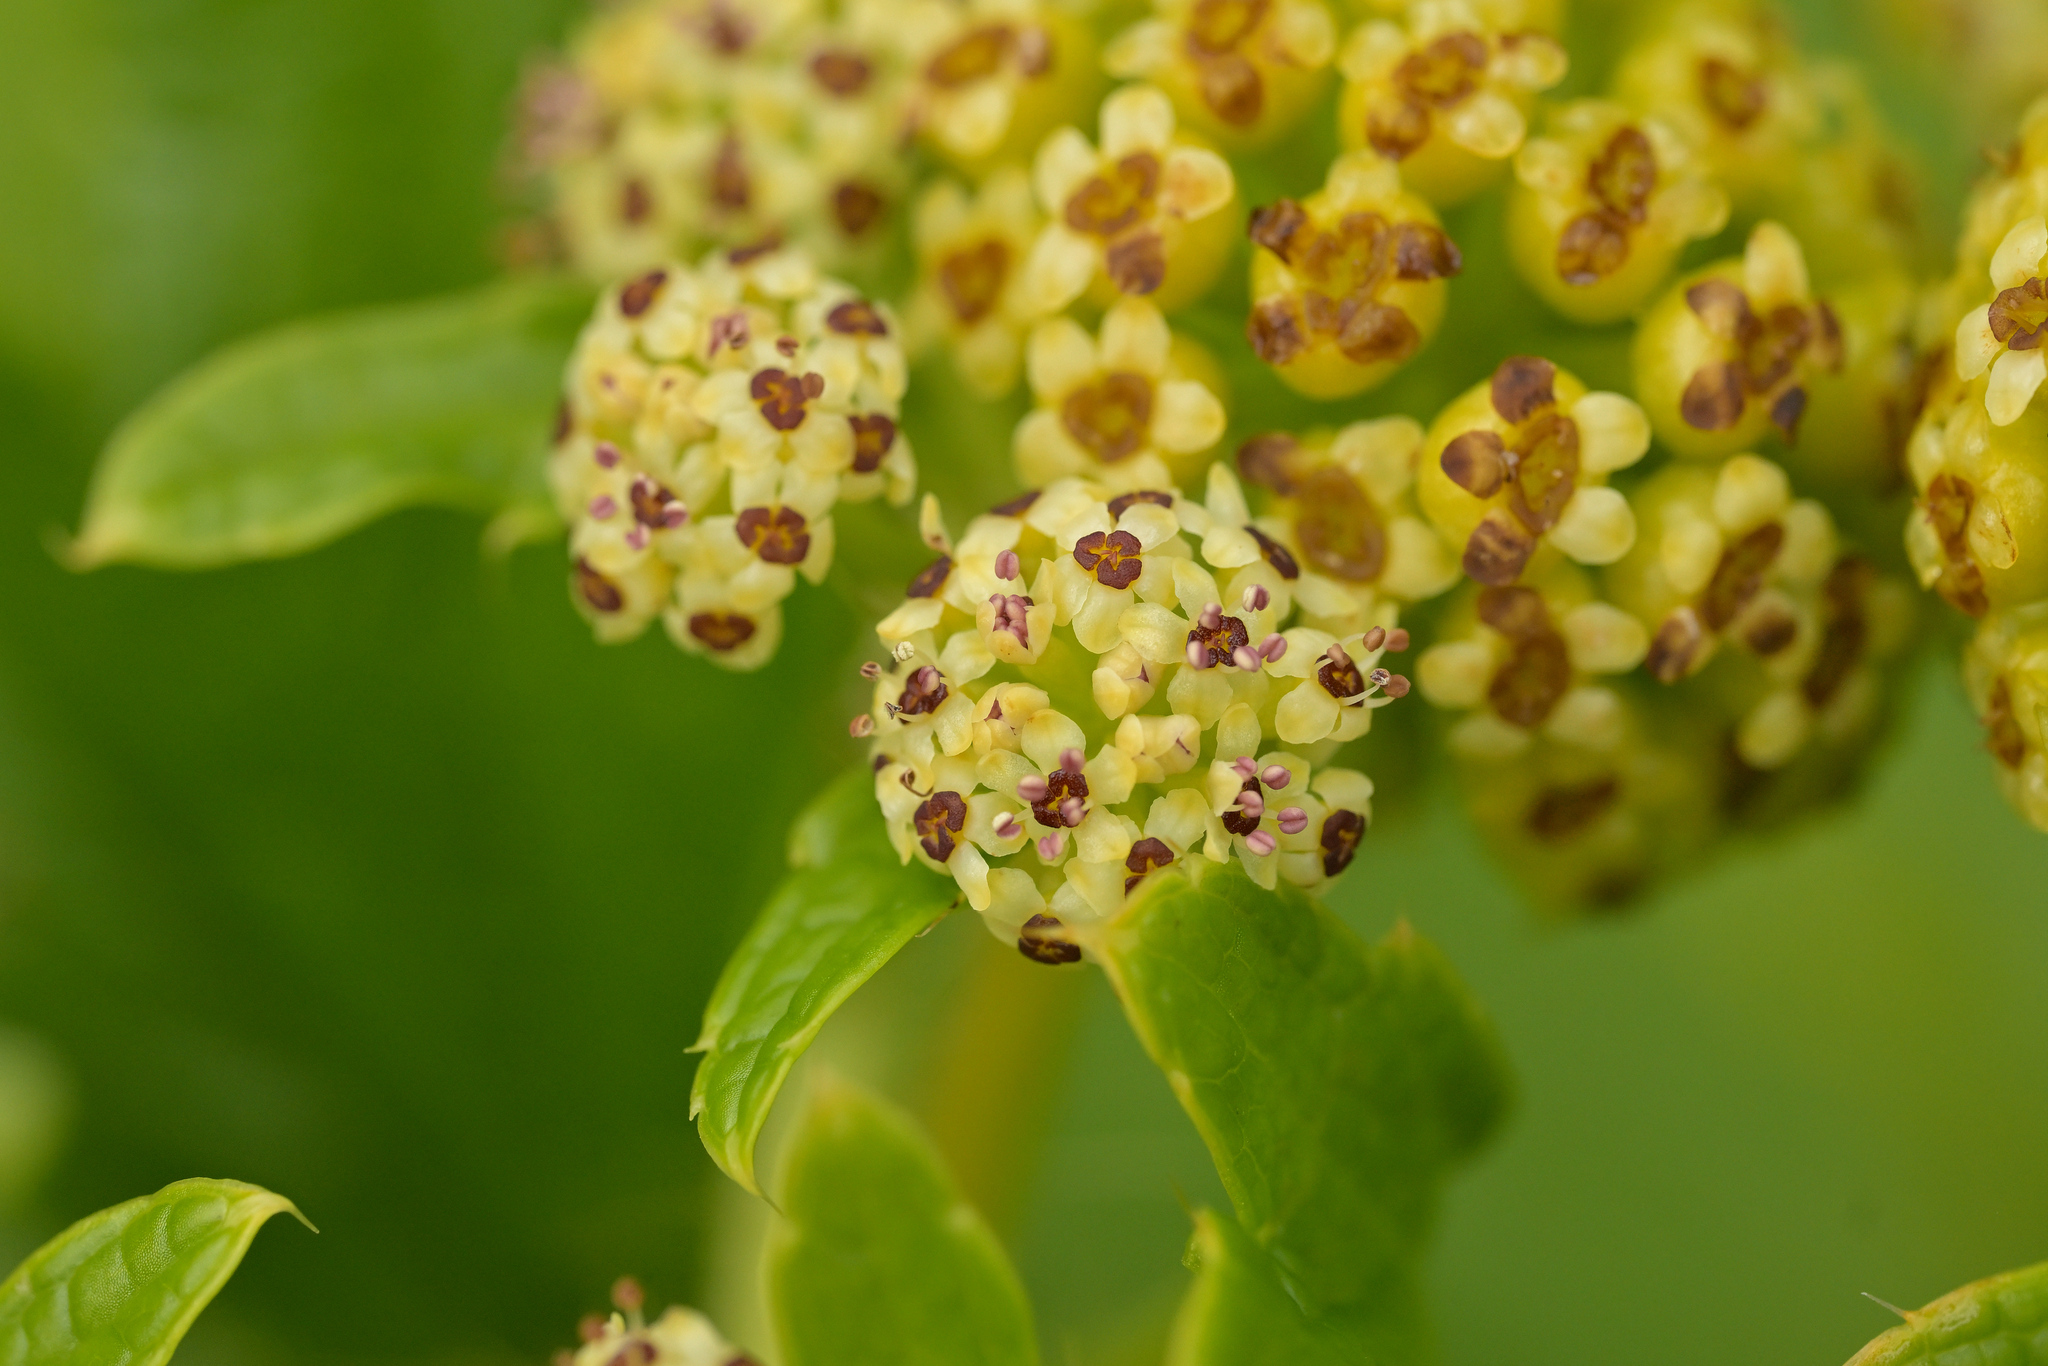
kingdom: Plantae
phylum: Tracheophyta
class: Magnoliopsida
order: Apiales
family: Apiaceae
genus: Azorella
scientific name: Azorella polaris
